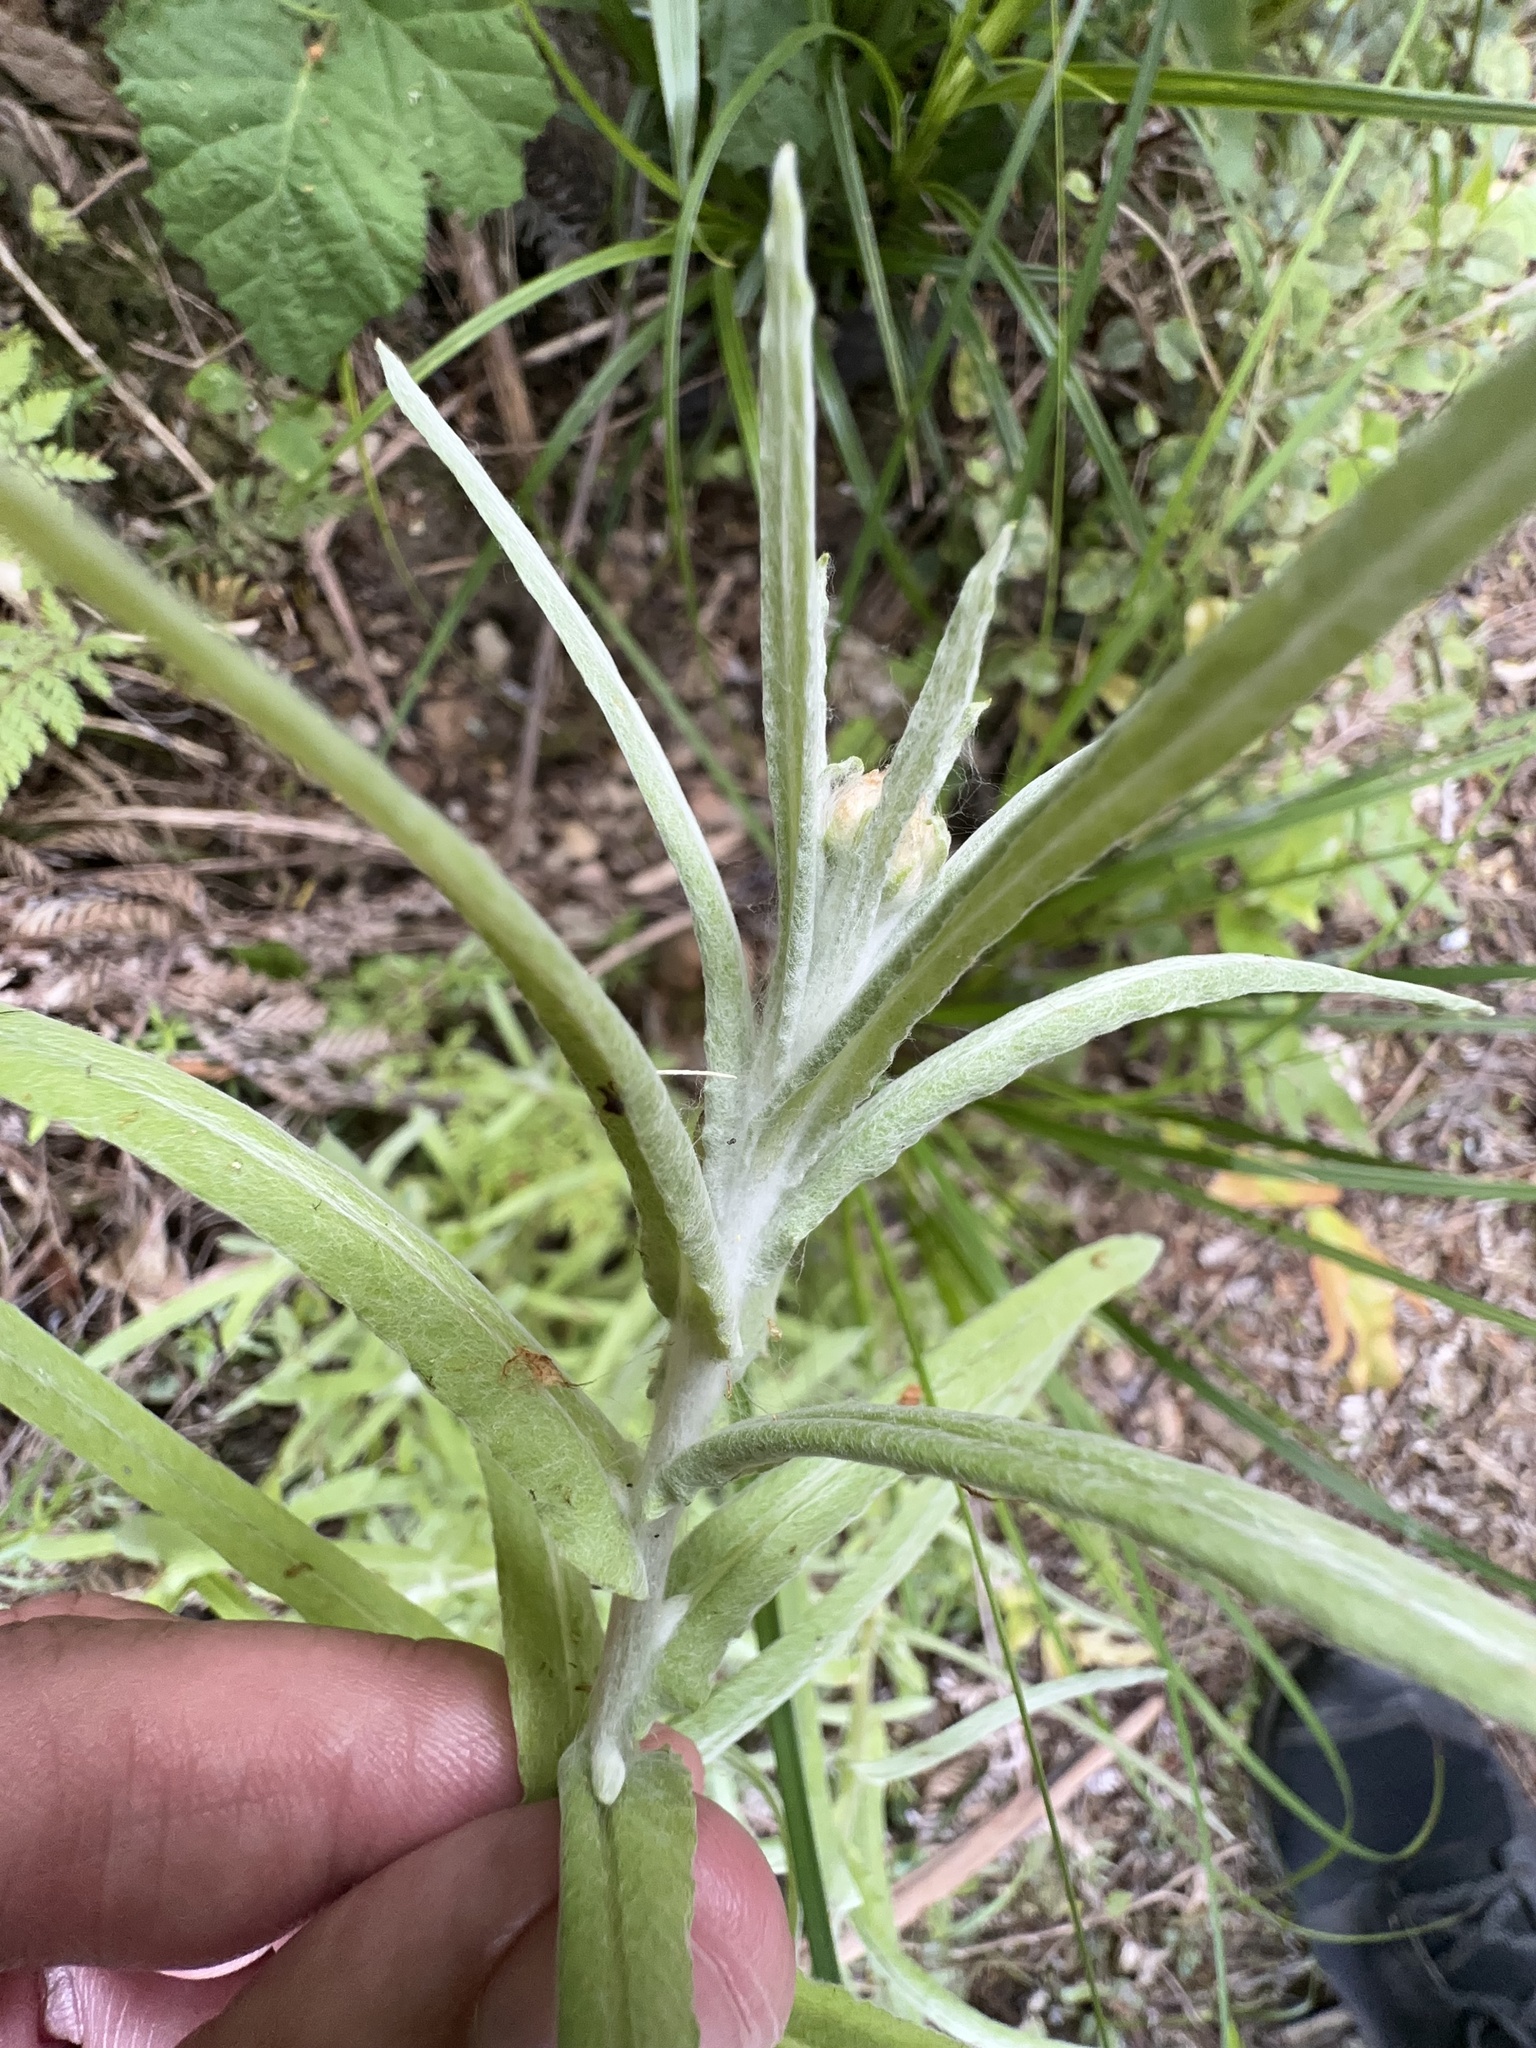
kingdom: Plantae
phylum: Tracheophyta
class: Magnoliopsida
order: Asterales
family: Asteraceae
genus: Pseudognaphalium
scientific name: Pseudognaphalium
